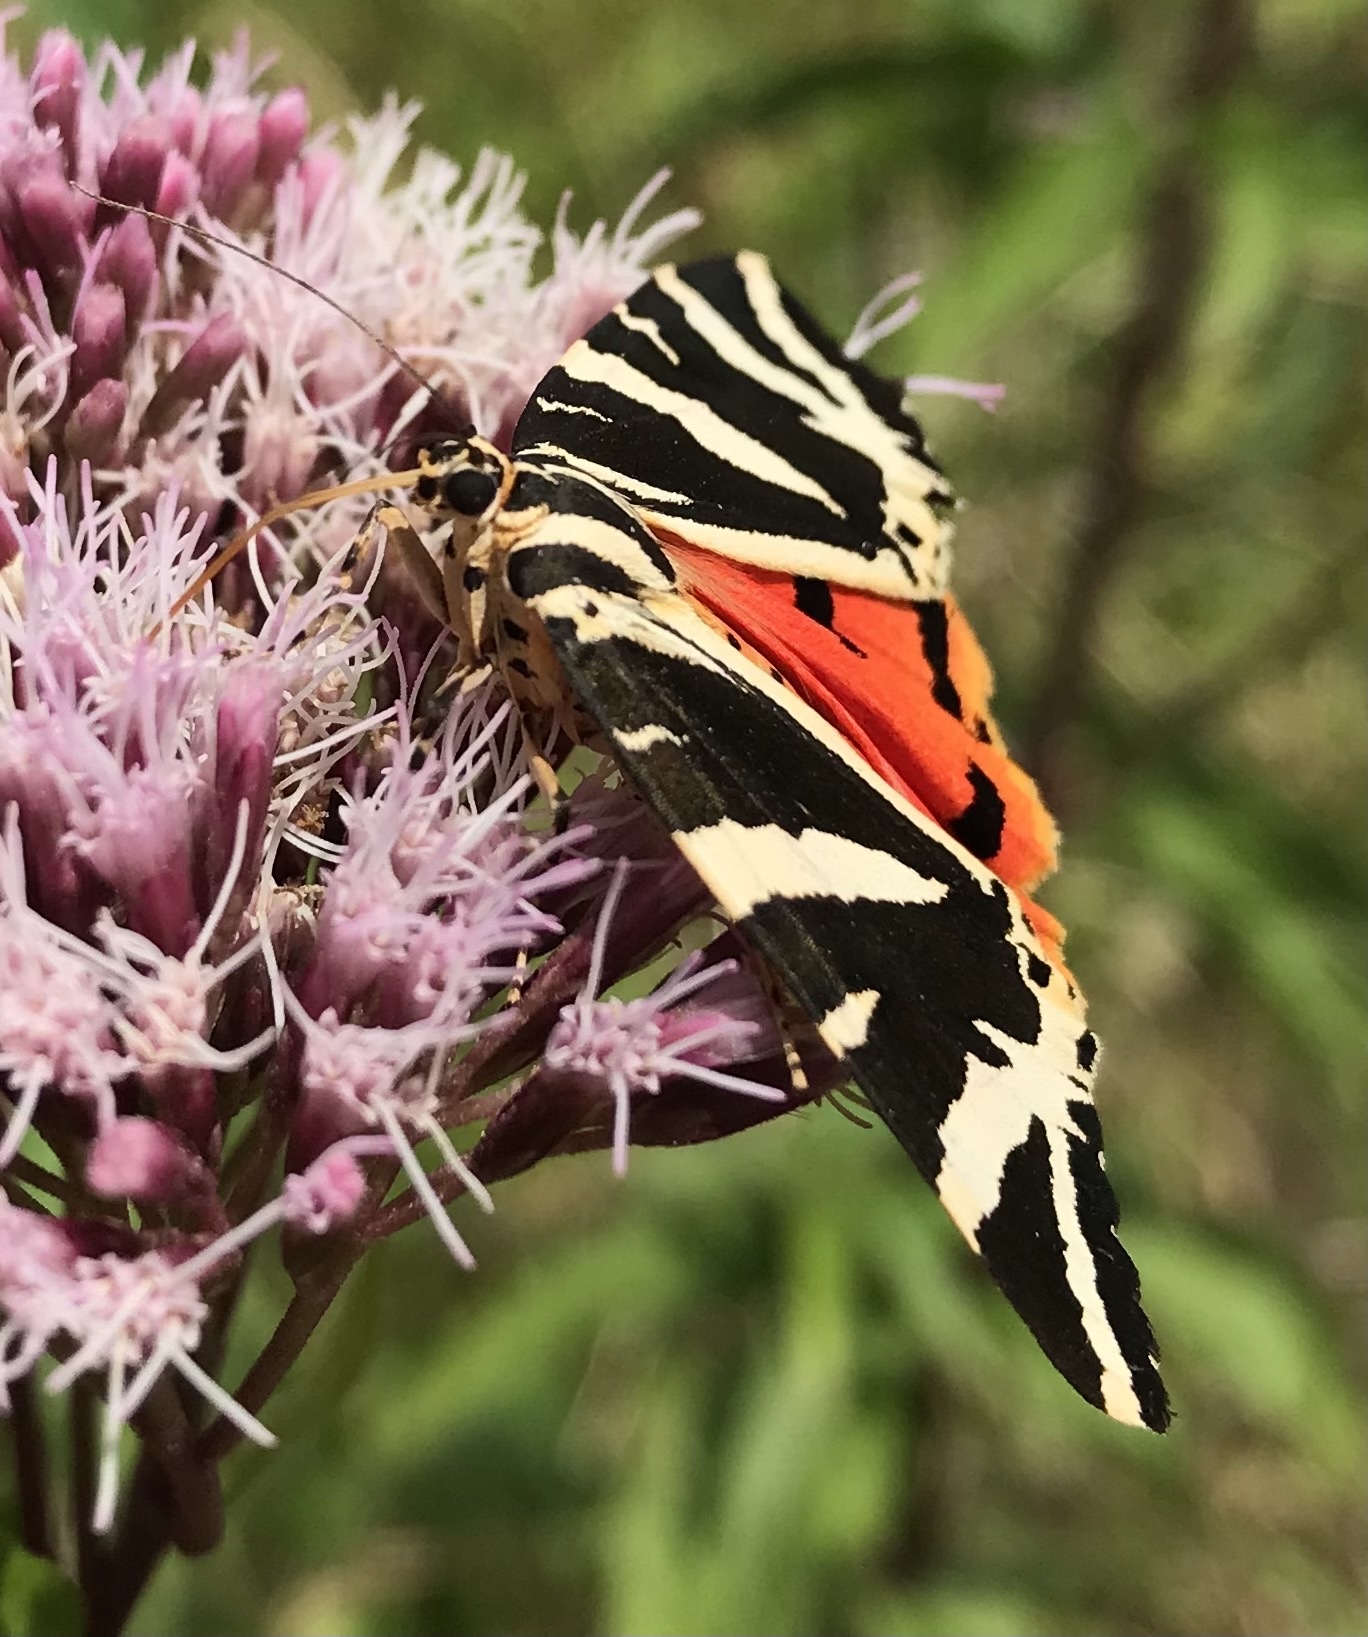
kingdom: Animalia
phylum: Arthropoda
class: Insecta
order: Lepidoptera
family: Erebidae
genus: Euplagia
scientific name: Euplagia quadripunctaria
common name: Jersey tiger
